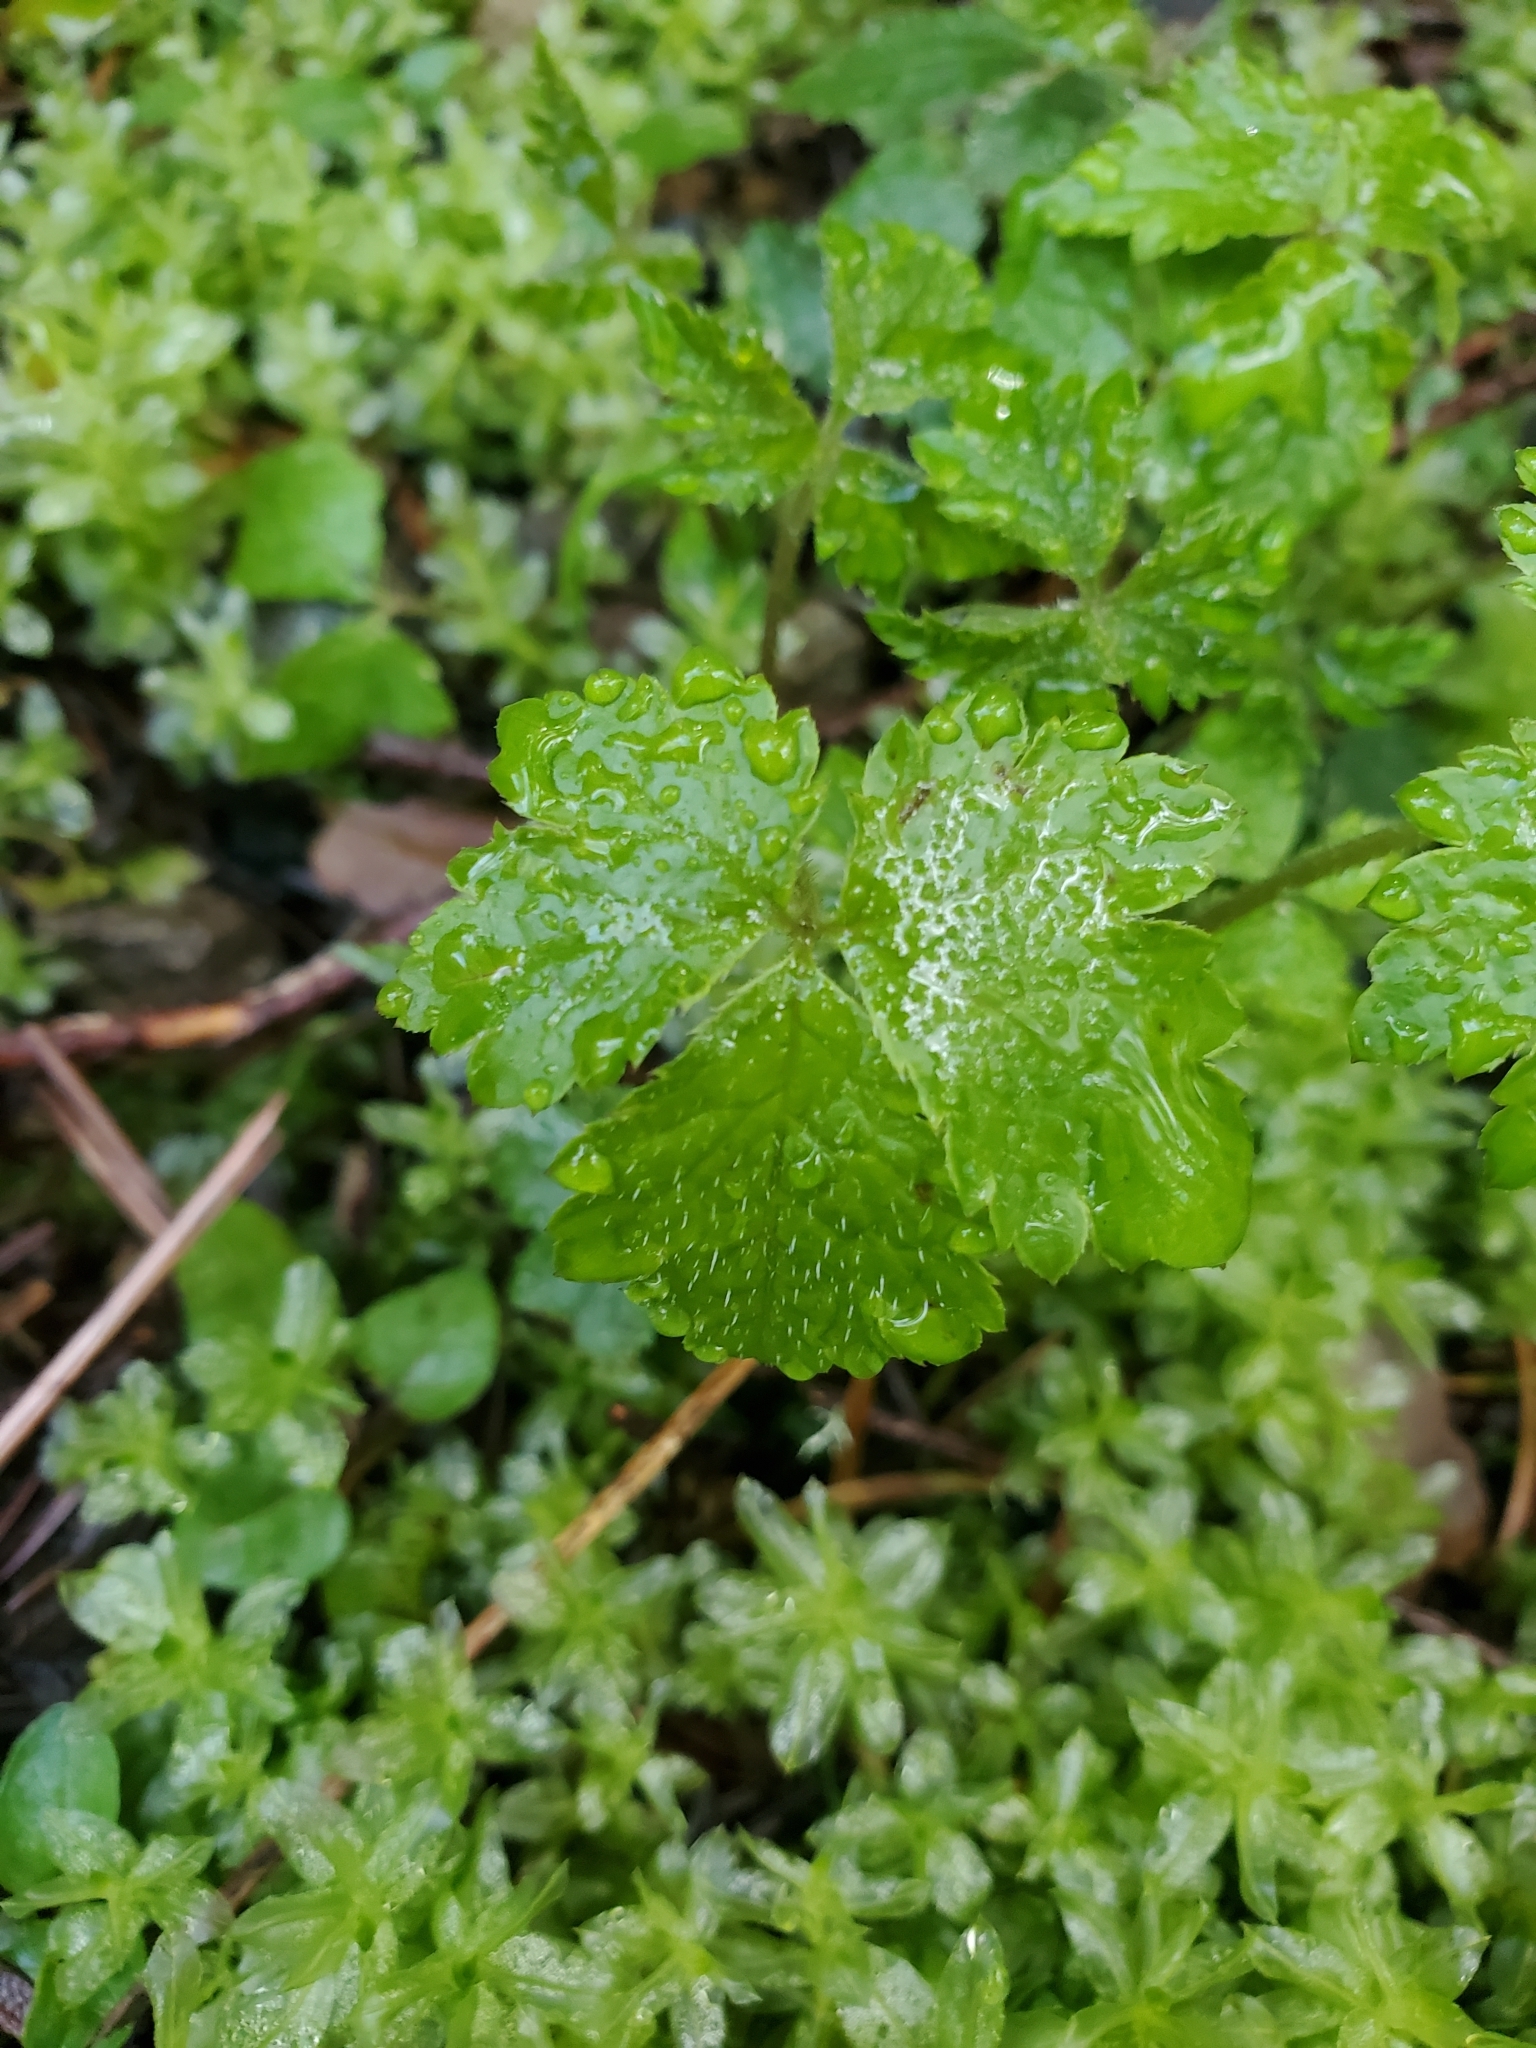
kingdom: Plantae
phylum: Tracheophyta
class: Magnoliopsida
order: Saxifragales
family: Saxifragaceae
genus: Tiarella
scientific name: Tiarella trifoliata
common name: Sugar-scoop
